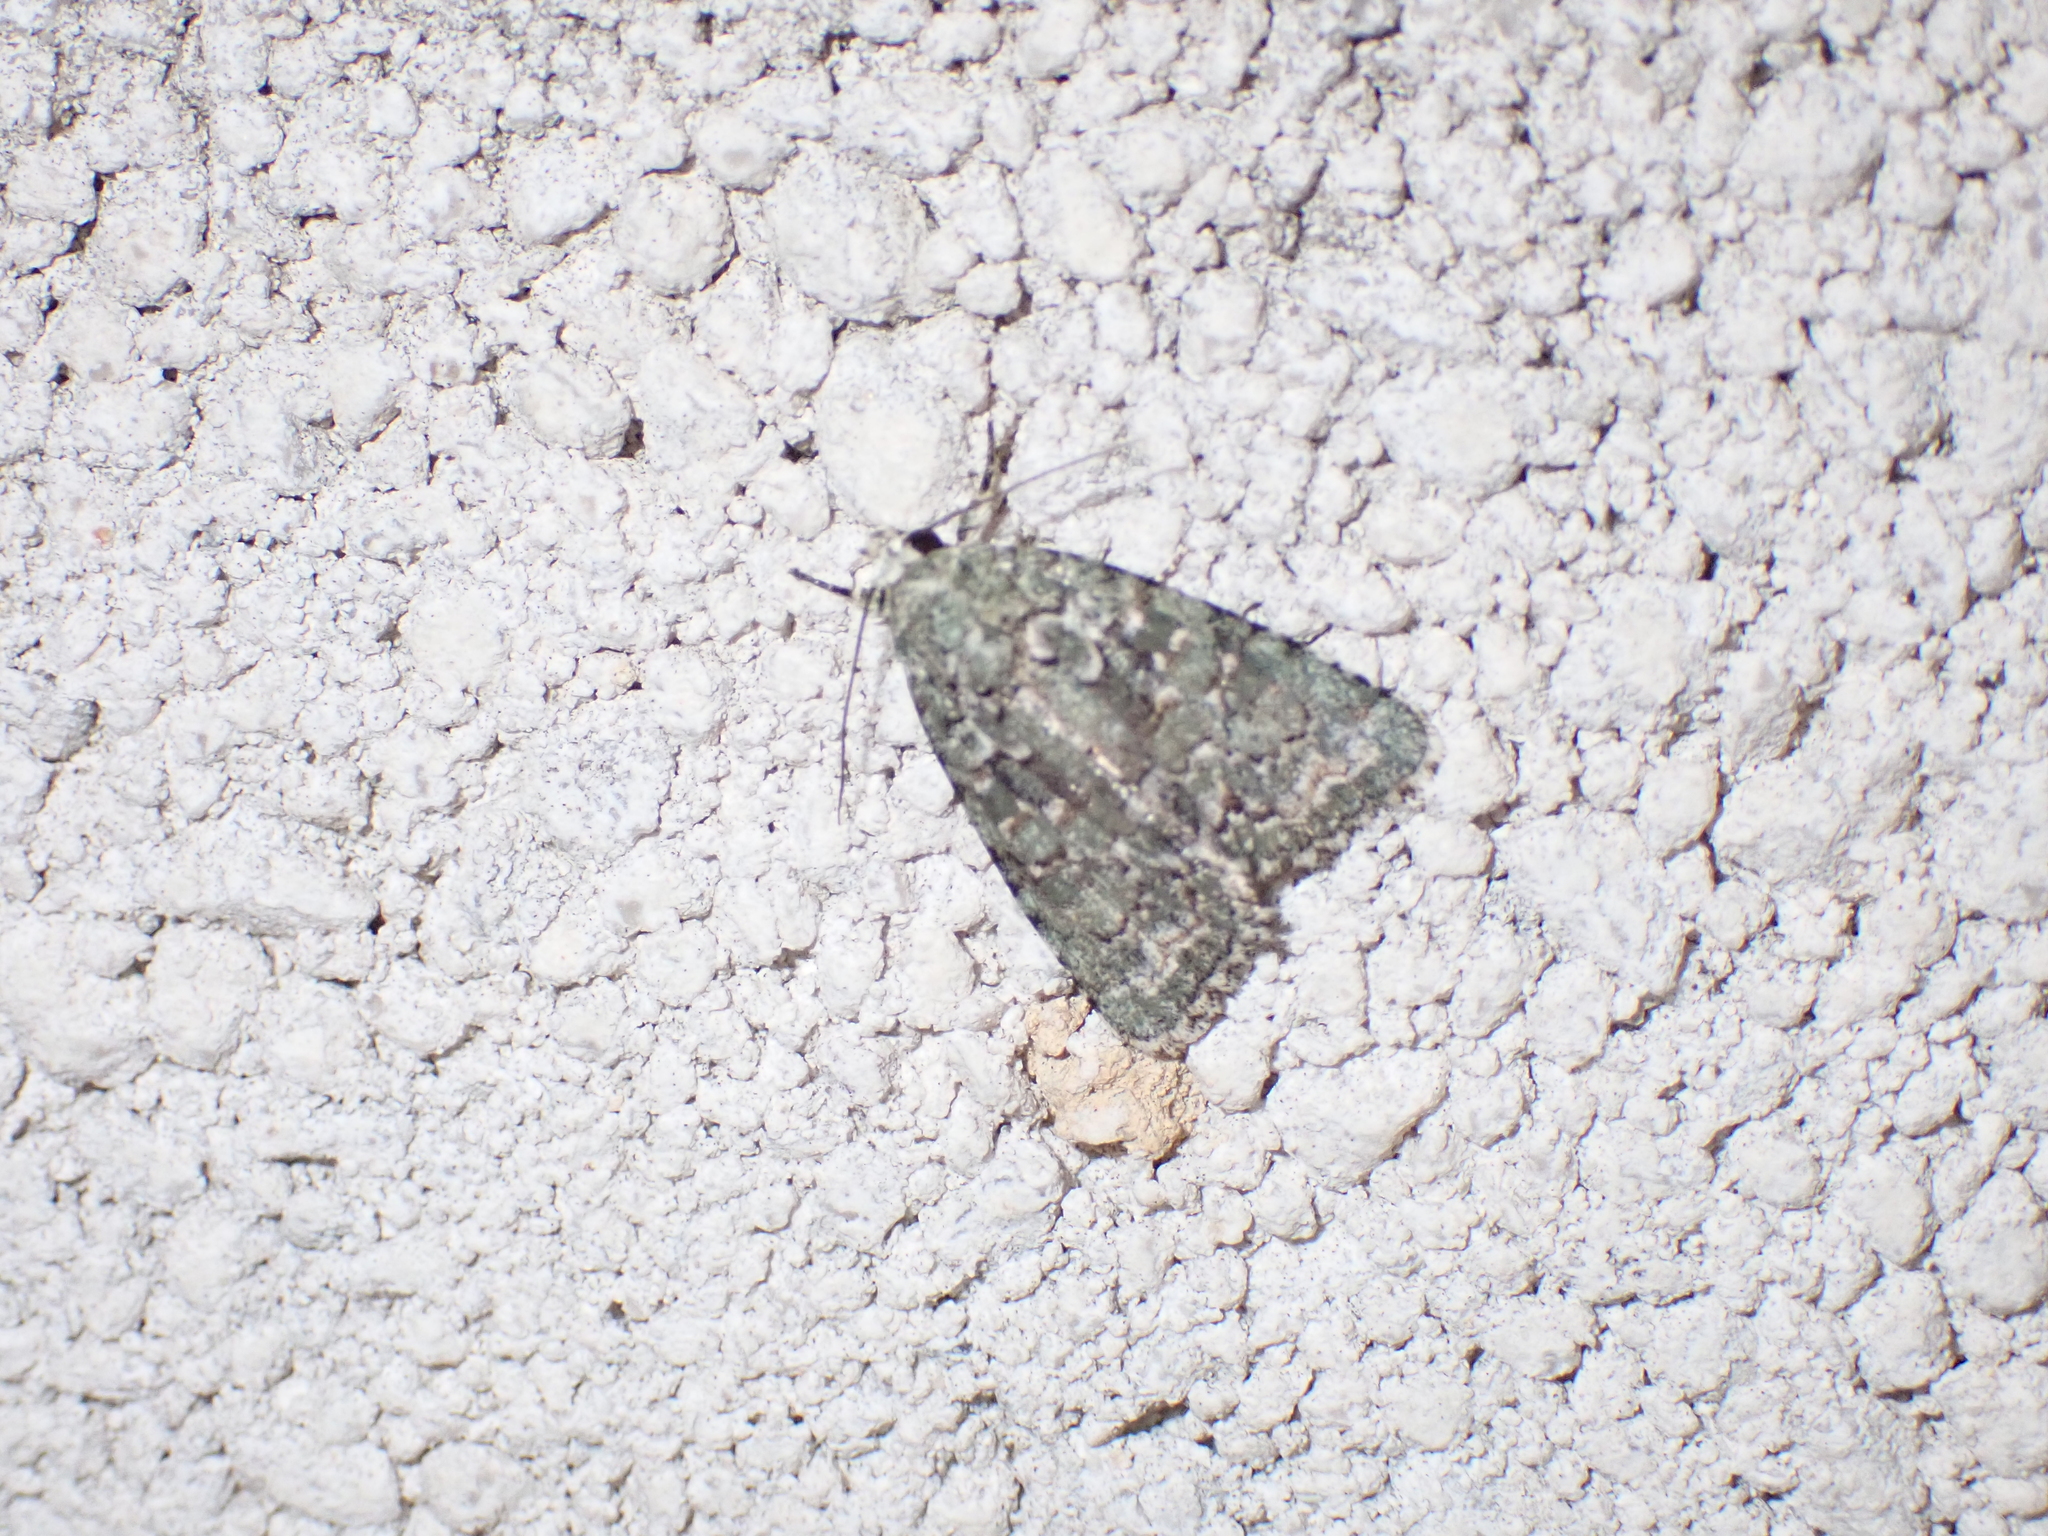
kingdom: Animalia
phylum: Arthropoda
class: Insecta
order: Lepidoptera
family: Noctuidae
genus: Nyctobrya
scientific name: Nyctobrya muralis
